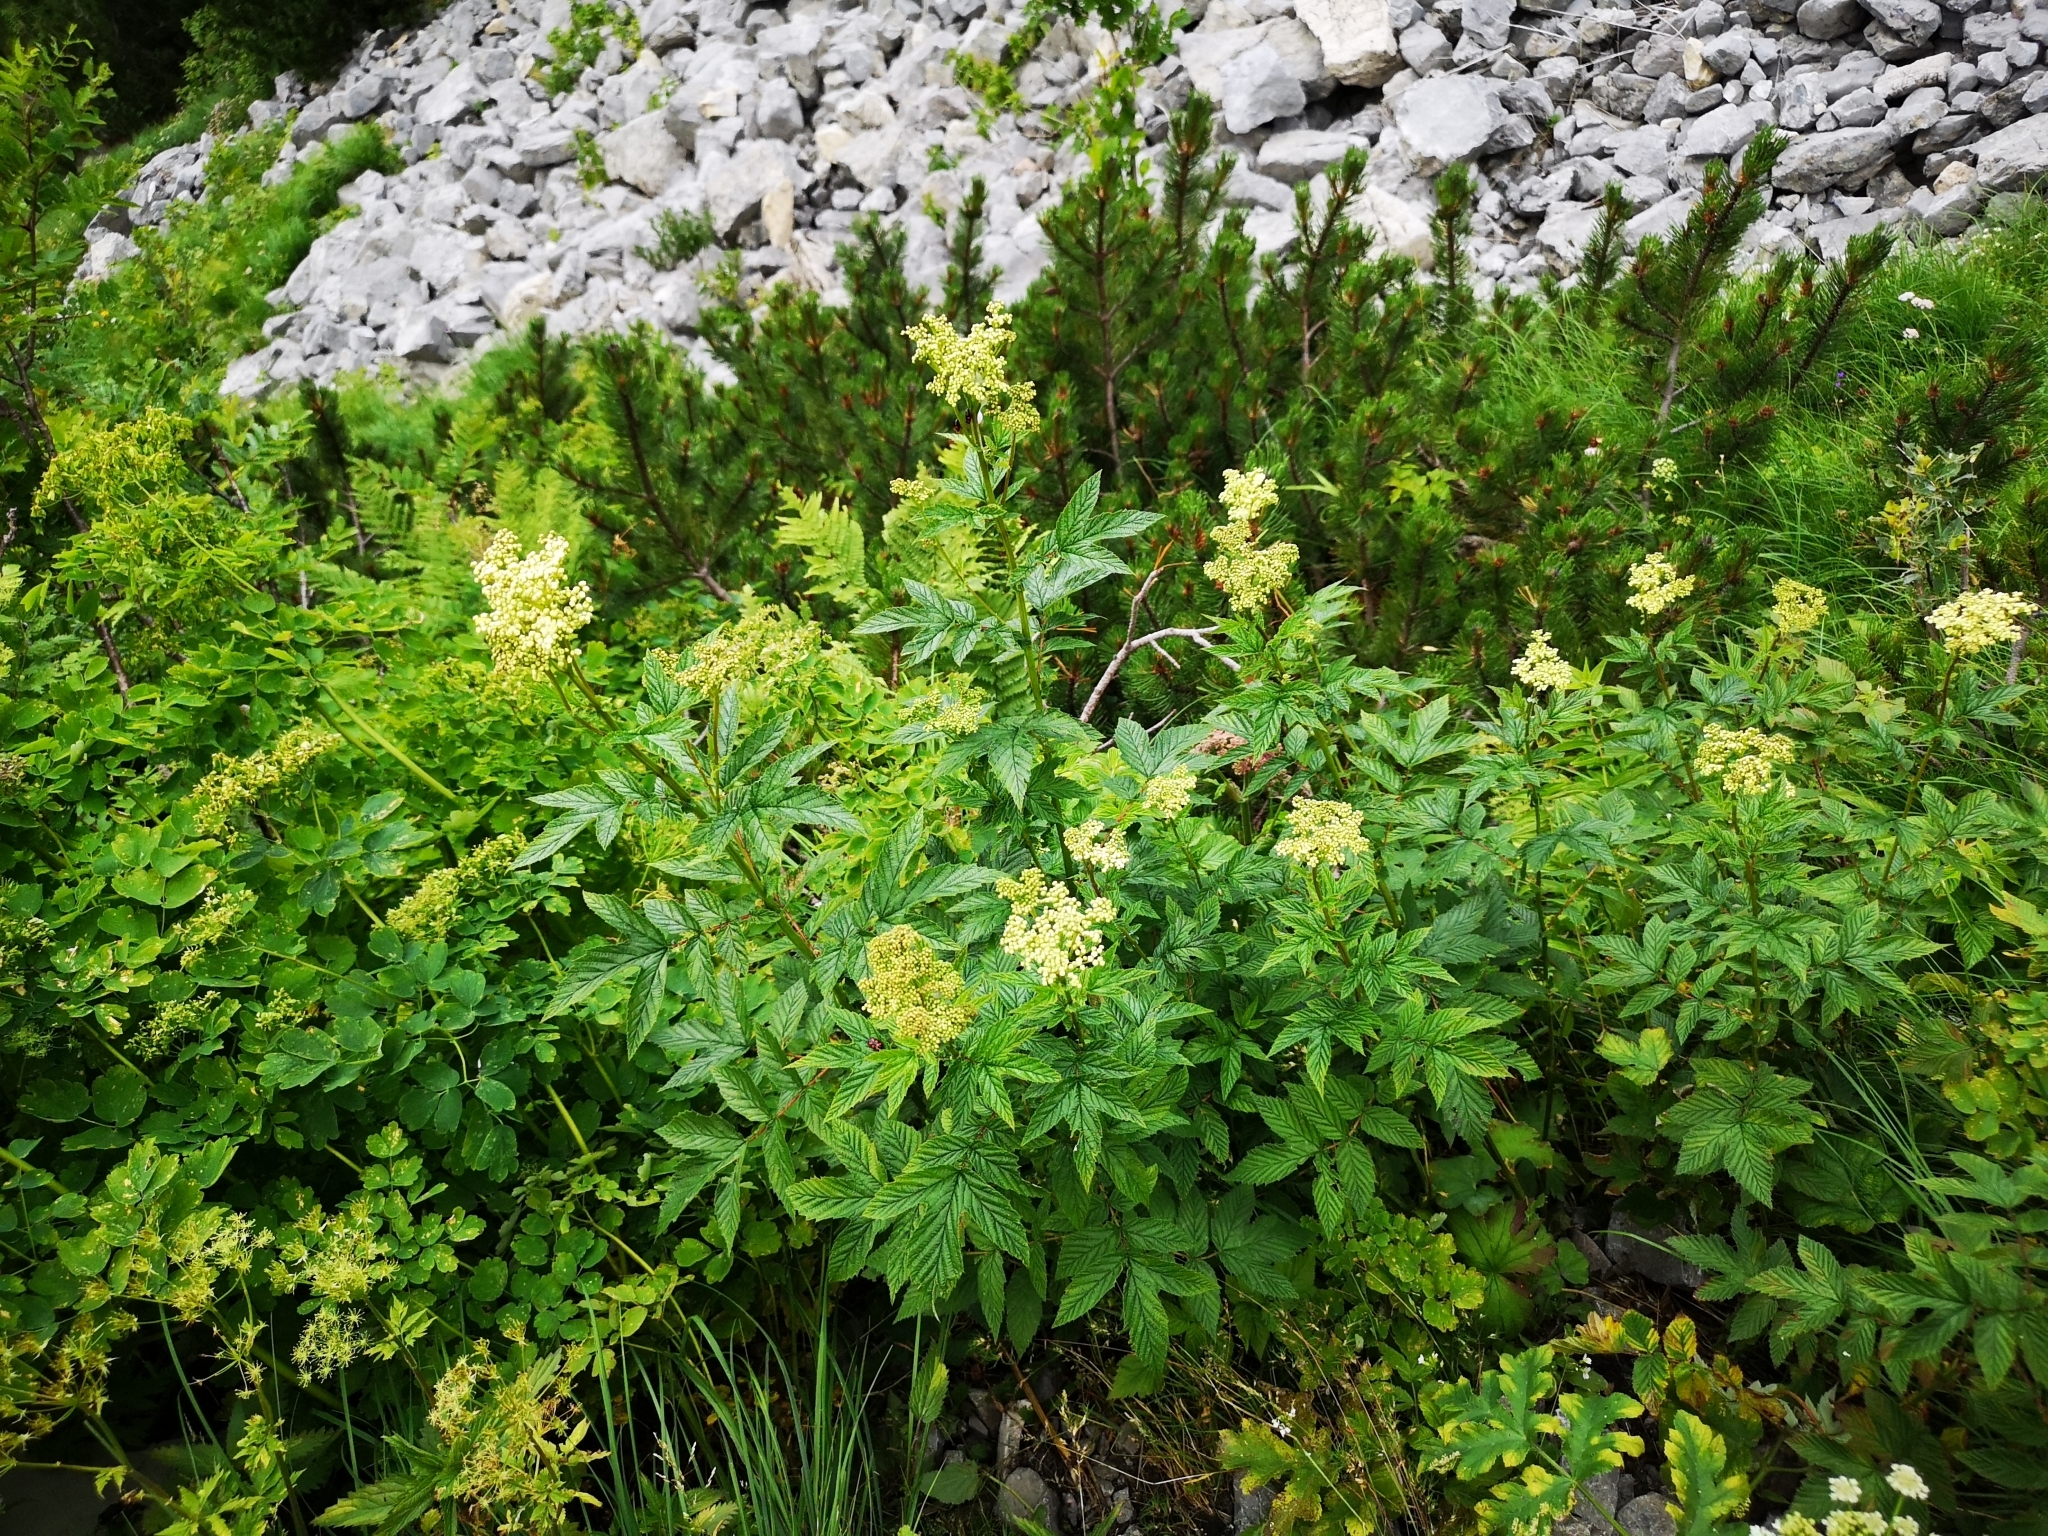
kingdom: Plantae
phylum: Tracheophyta
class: Magnoliopsida
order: Rosales
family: Rosaceae
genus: Filipendula
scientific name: Filipendula ulmaria
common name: Meadowsweet
